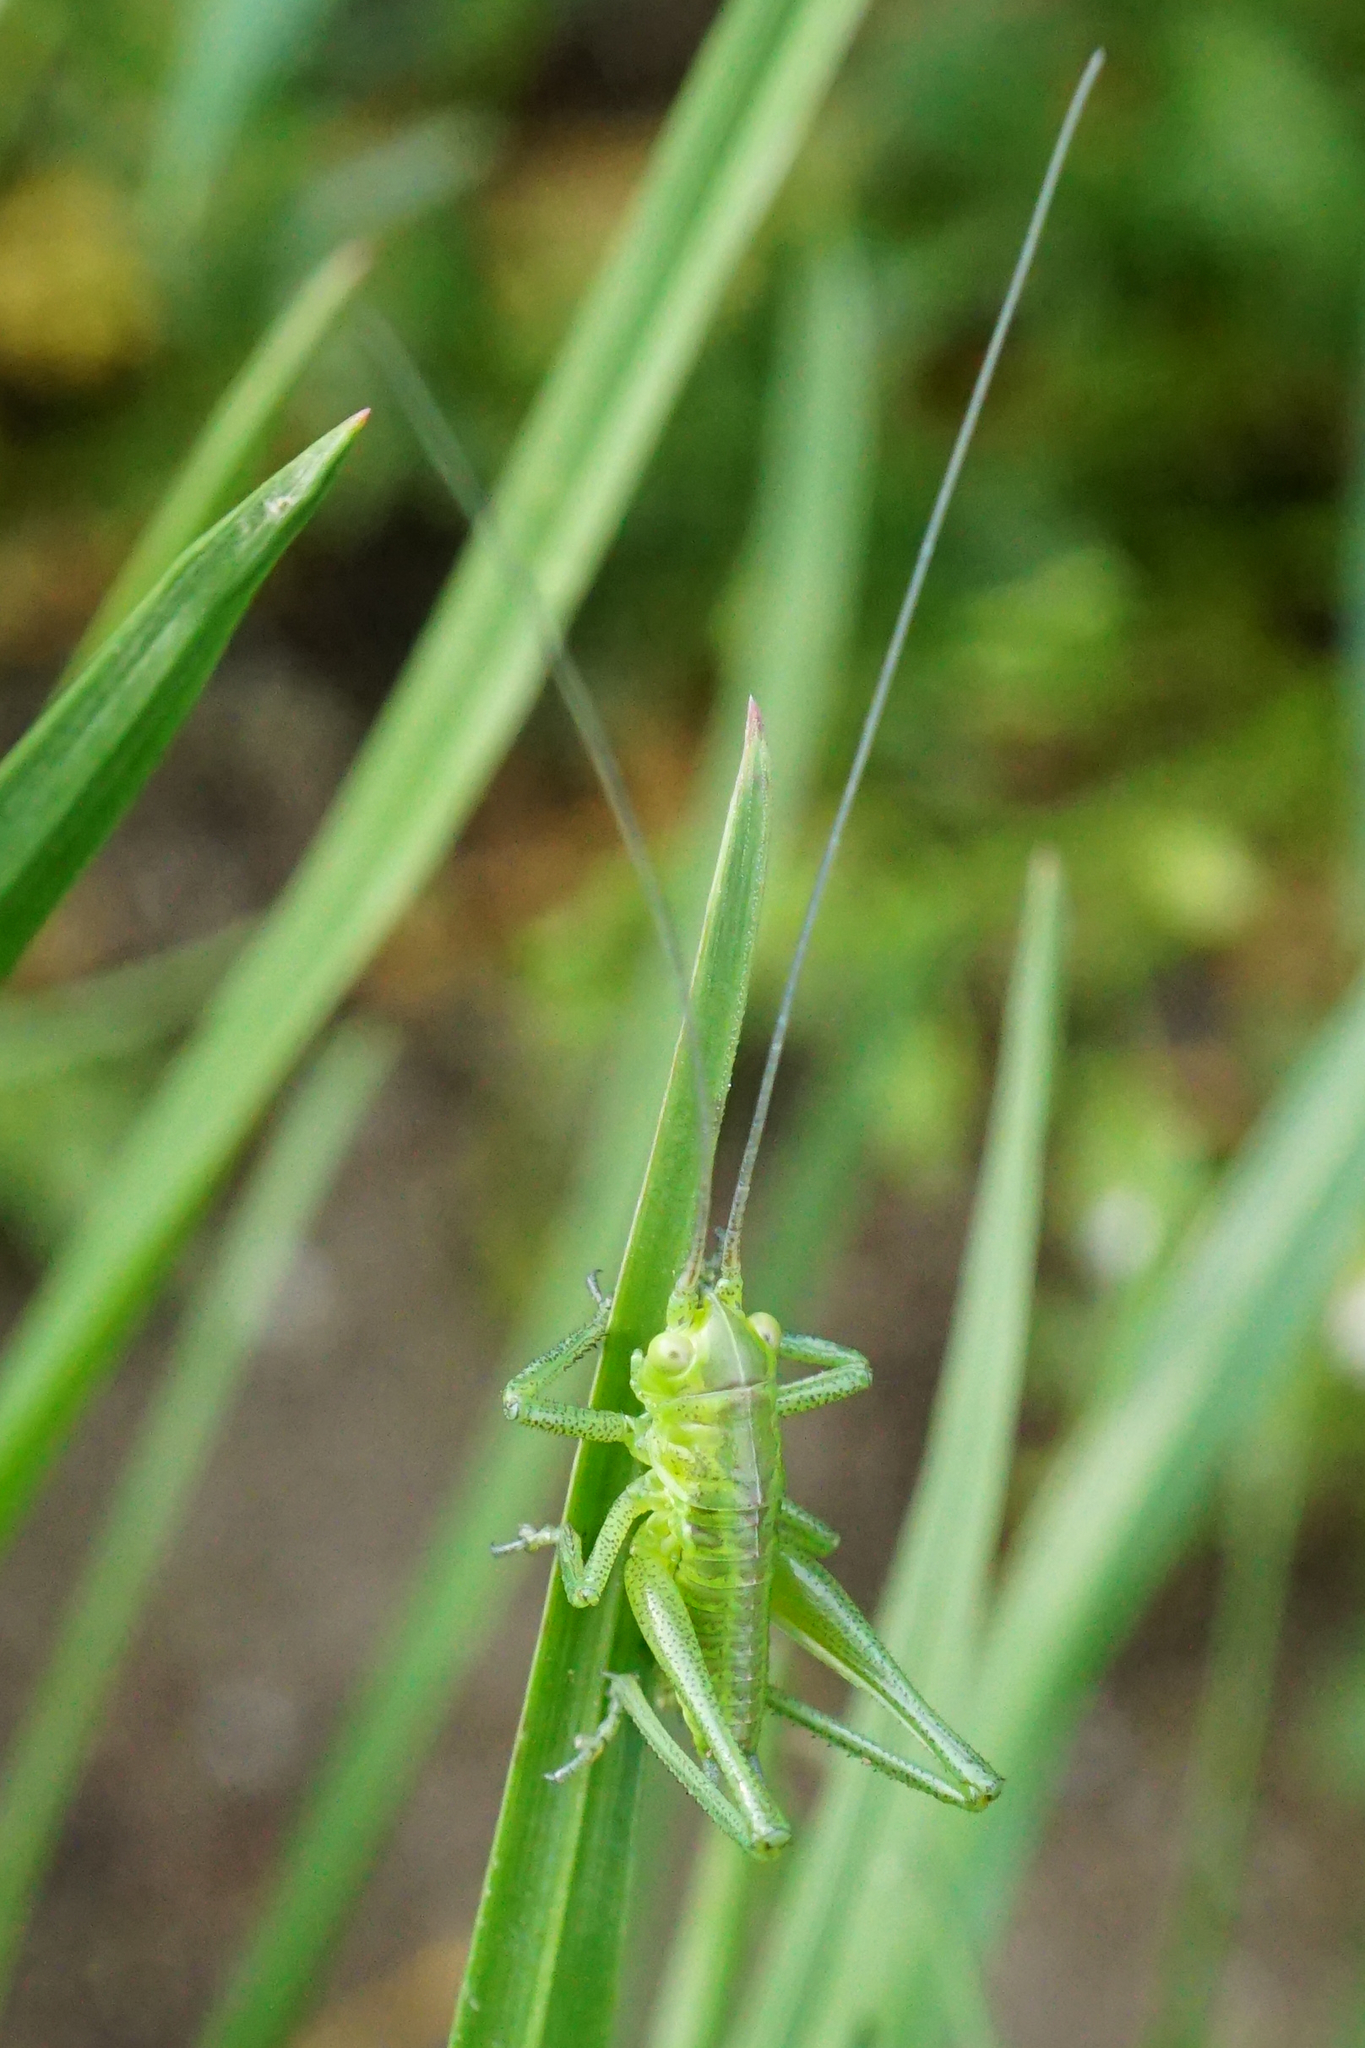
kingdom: Animalia
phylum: Arthropoda
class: Insecta
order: Orthoptera
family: Tettigoniidae
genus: Tettigonia
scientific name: Tettigonia
